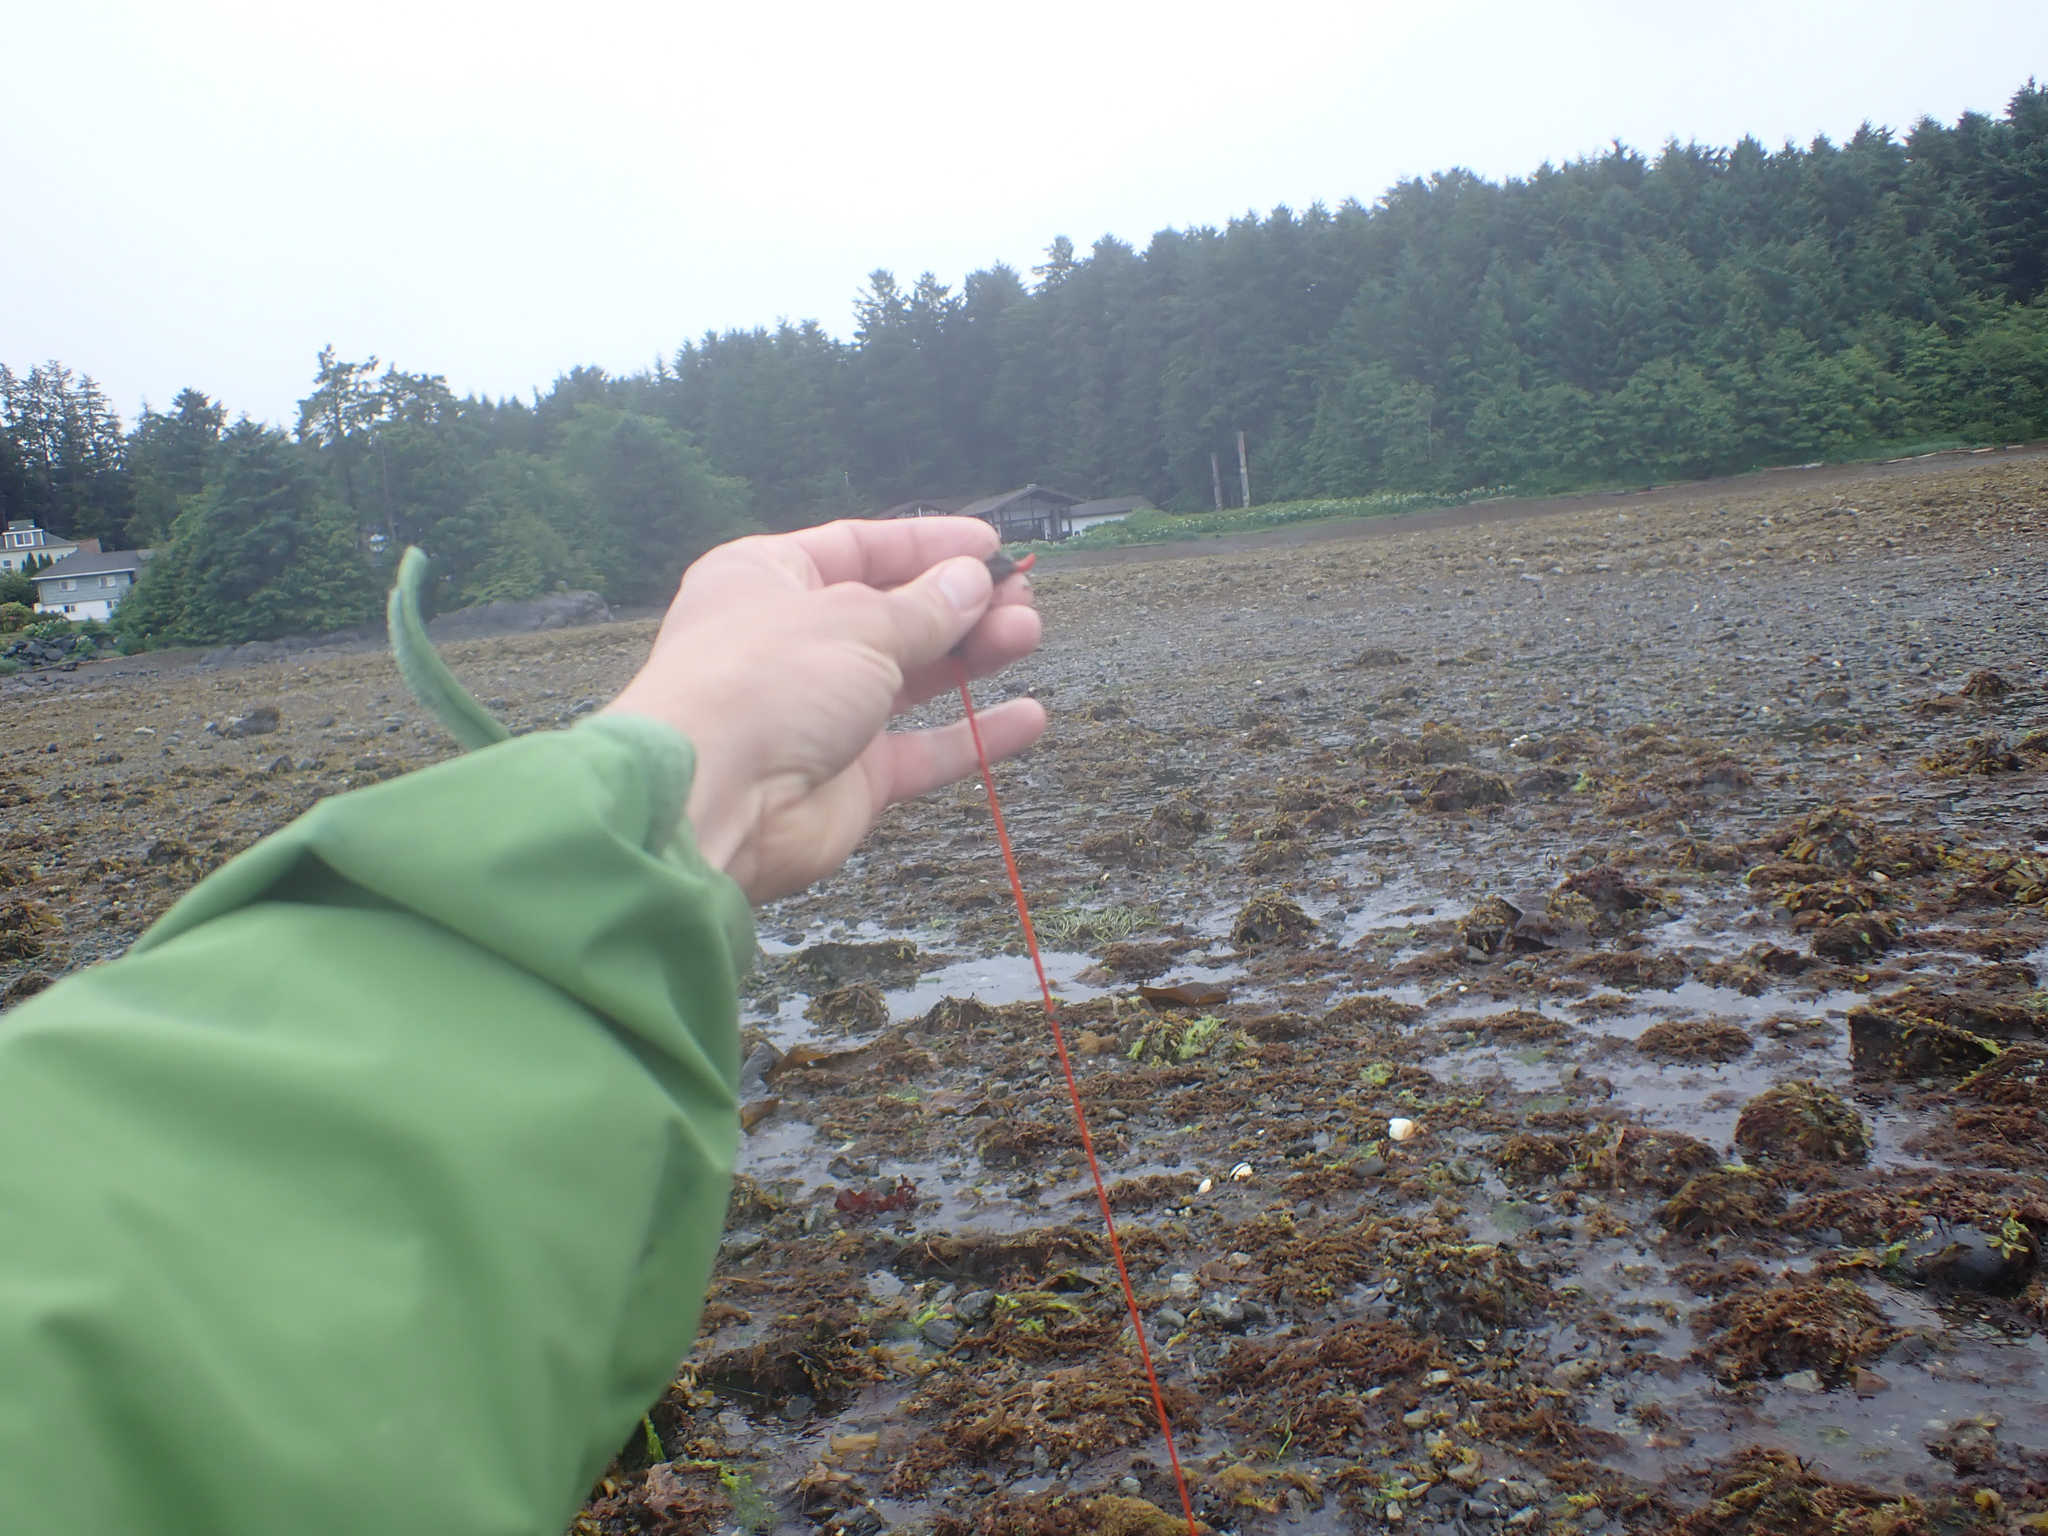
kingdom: Animalia
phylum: Nemertea
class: Palaeonemertea
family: Tubulanidae
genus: Tubulanus
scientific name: Tubulanus polymorphus
